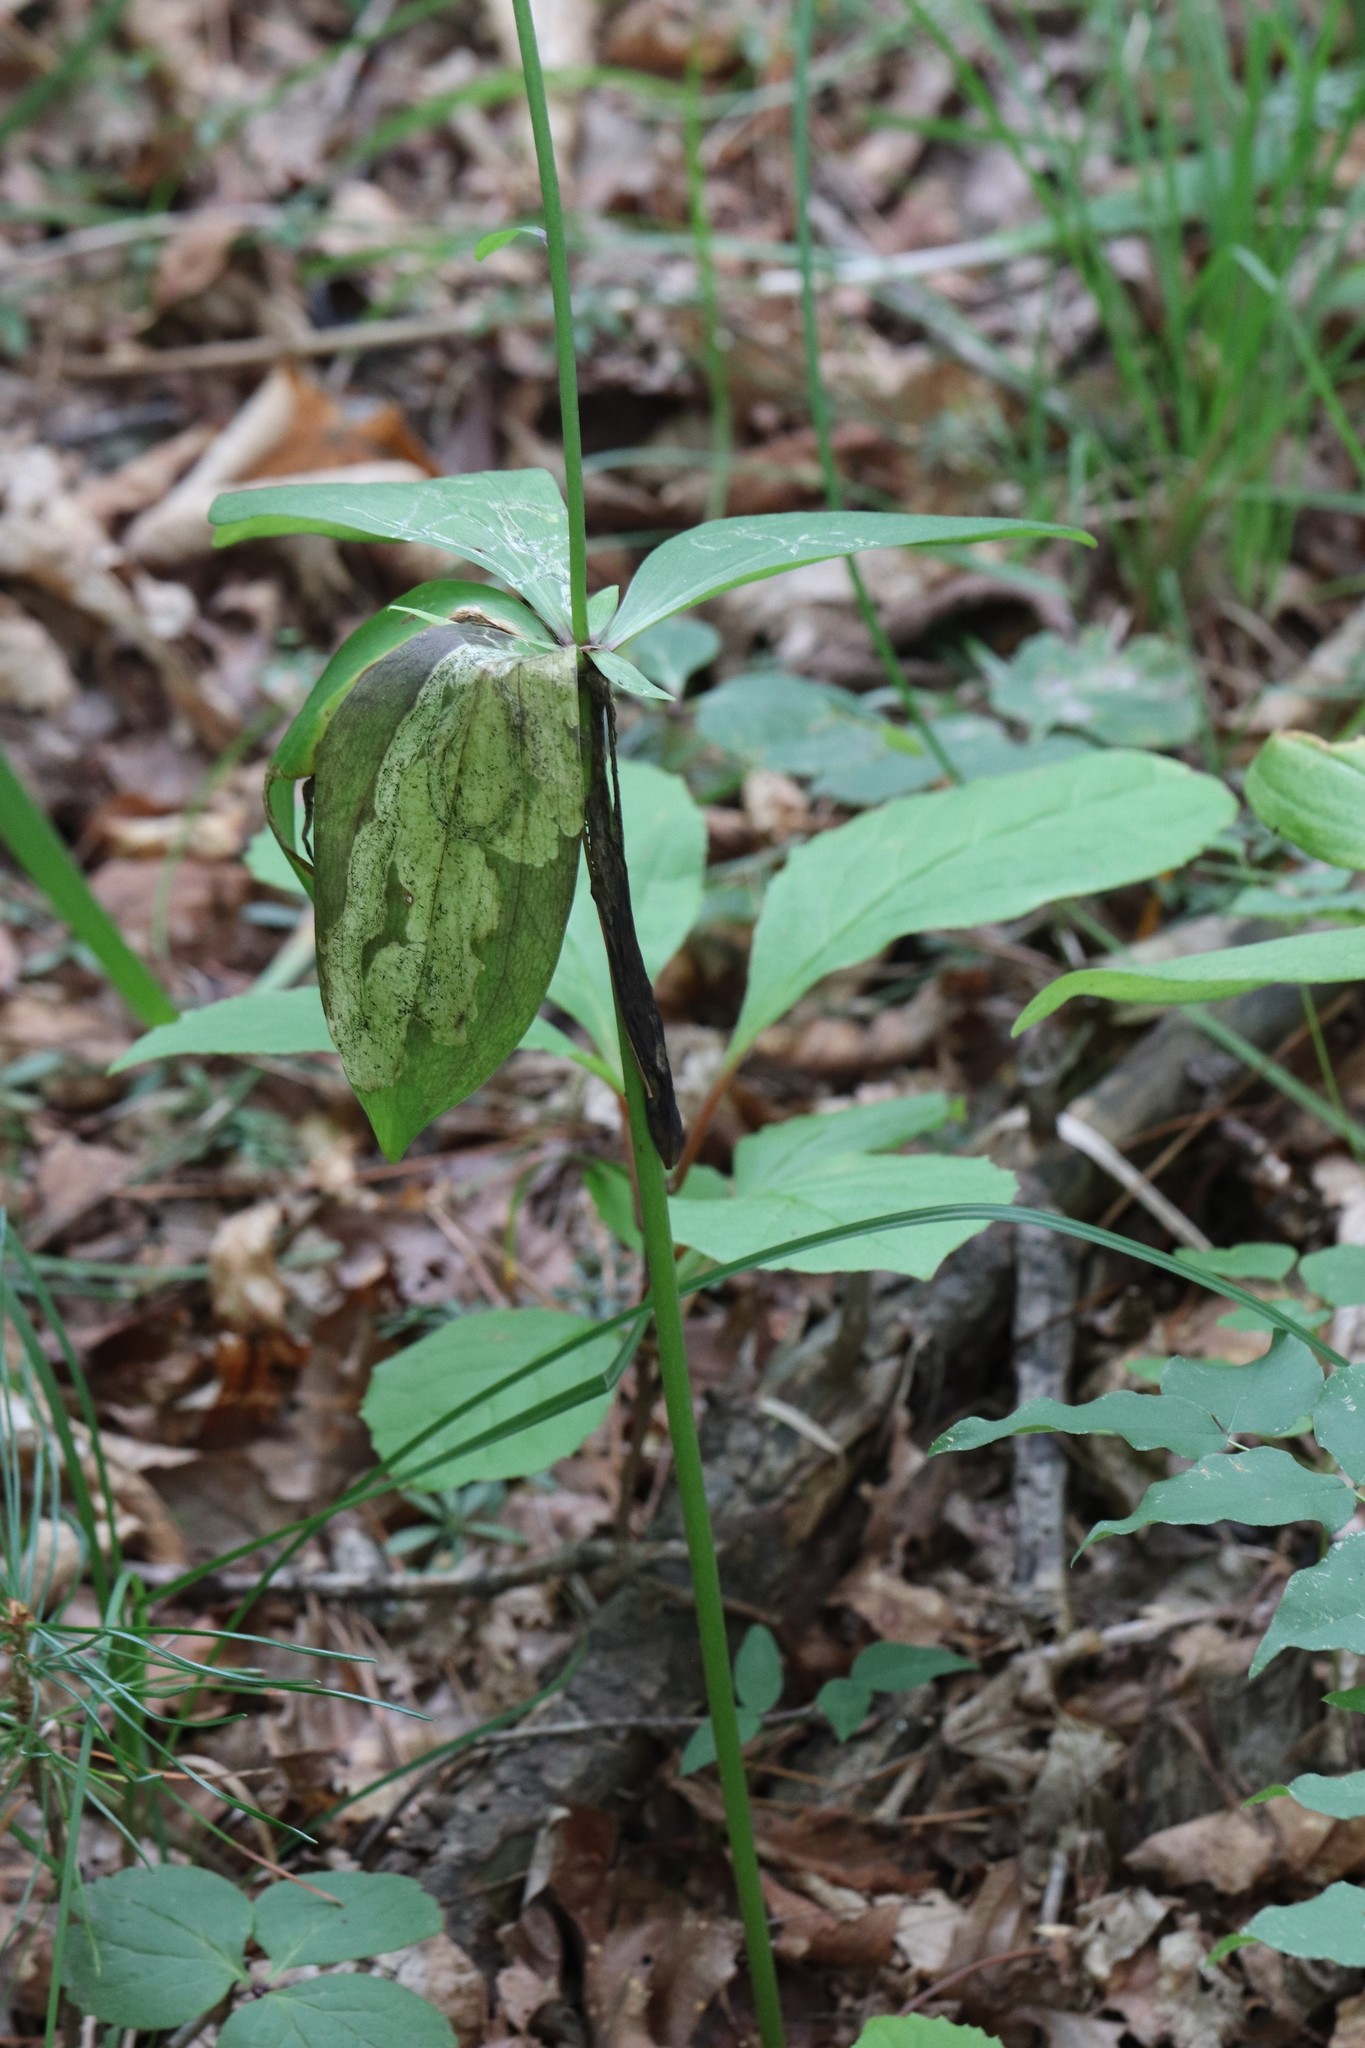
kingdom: Plantae
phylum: Tracheophyta
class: Liliopsida
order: Liliales
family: Liliaceae
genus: Lilium
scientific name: Lilium distichum
